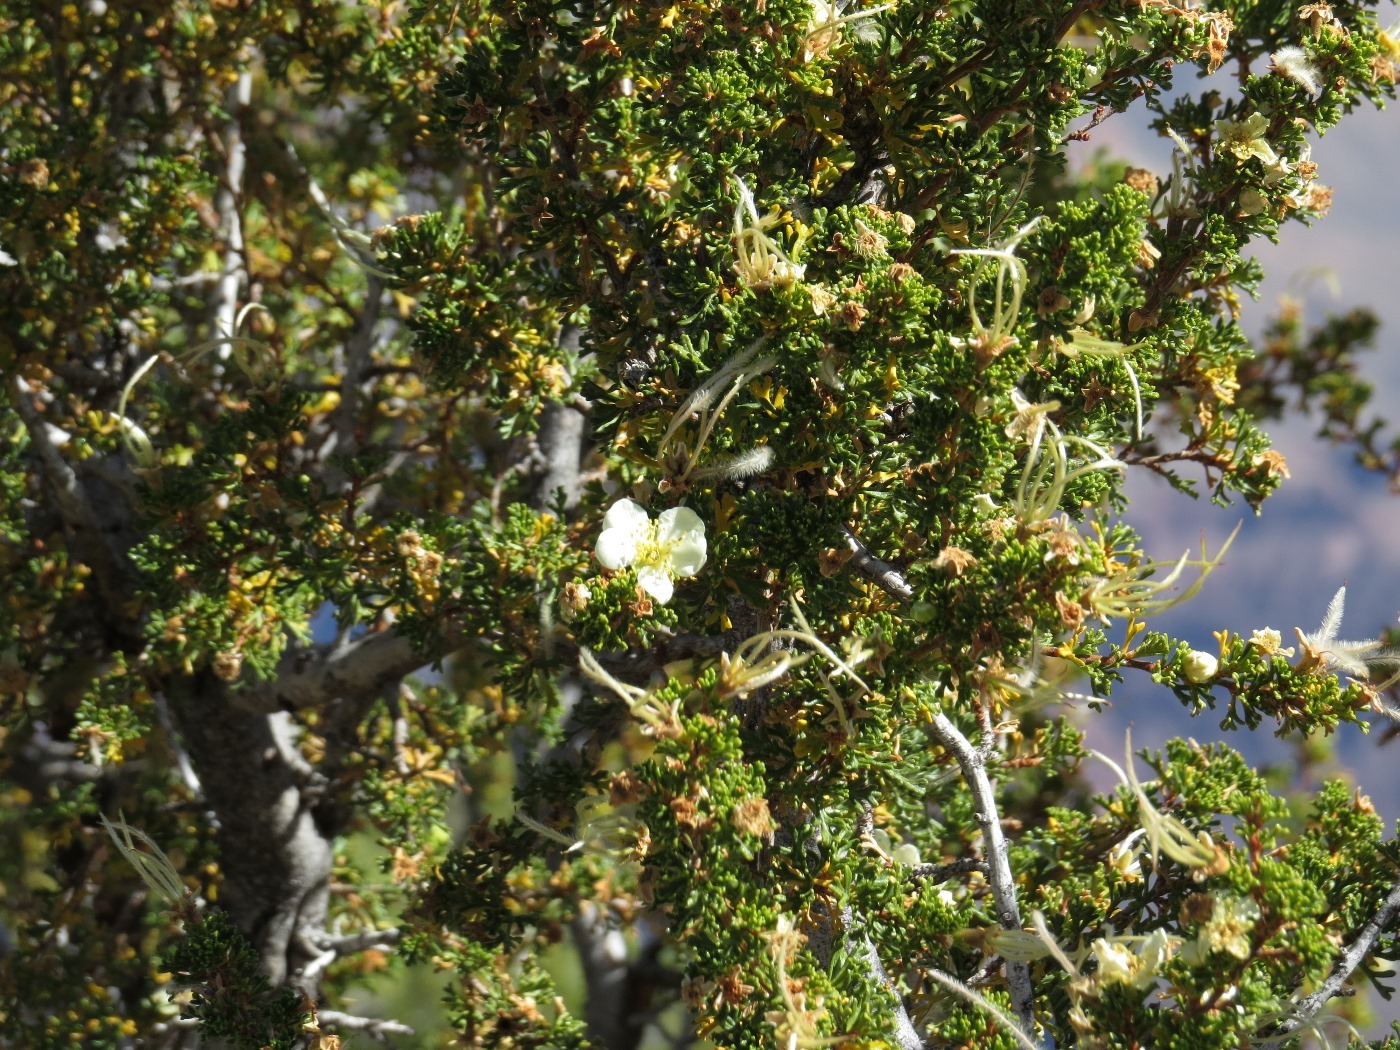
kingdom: Plantae
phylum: Tracheophyta
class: Magnoliopsida
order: Rosales
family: Rosaceae
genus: Purshia
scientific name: Purshia stansburiana
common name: Stansbury's cliffrose
